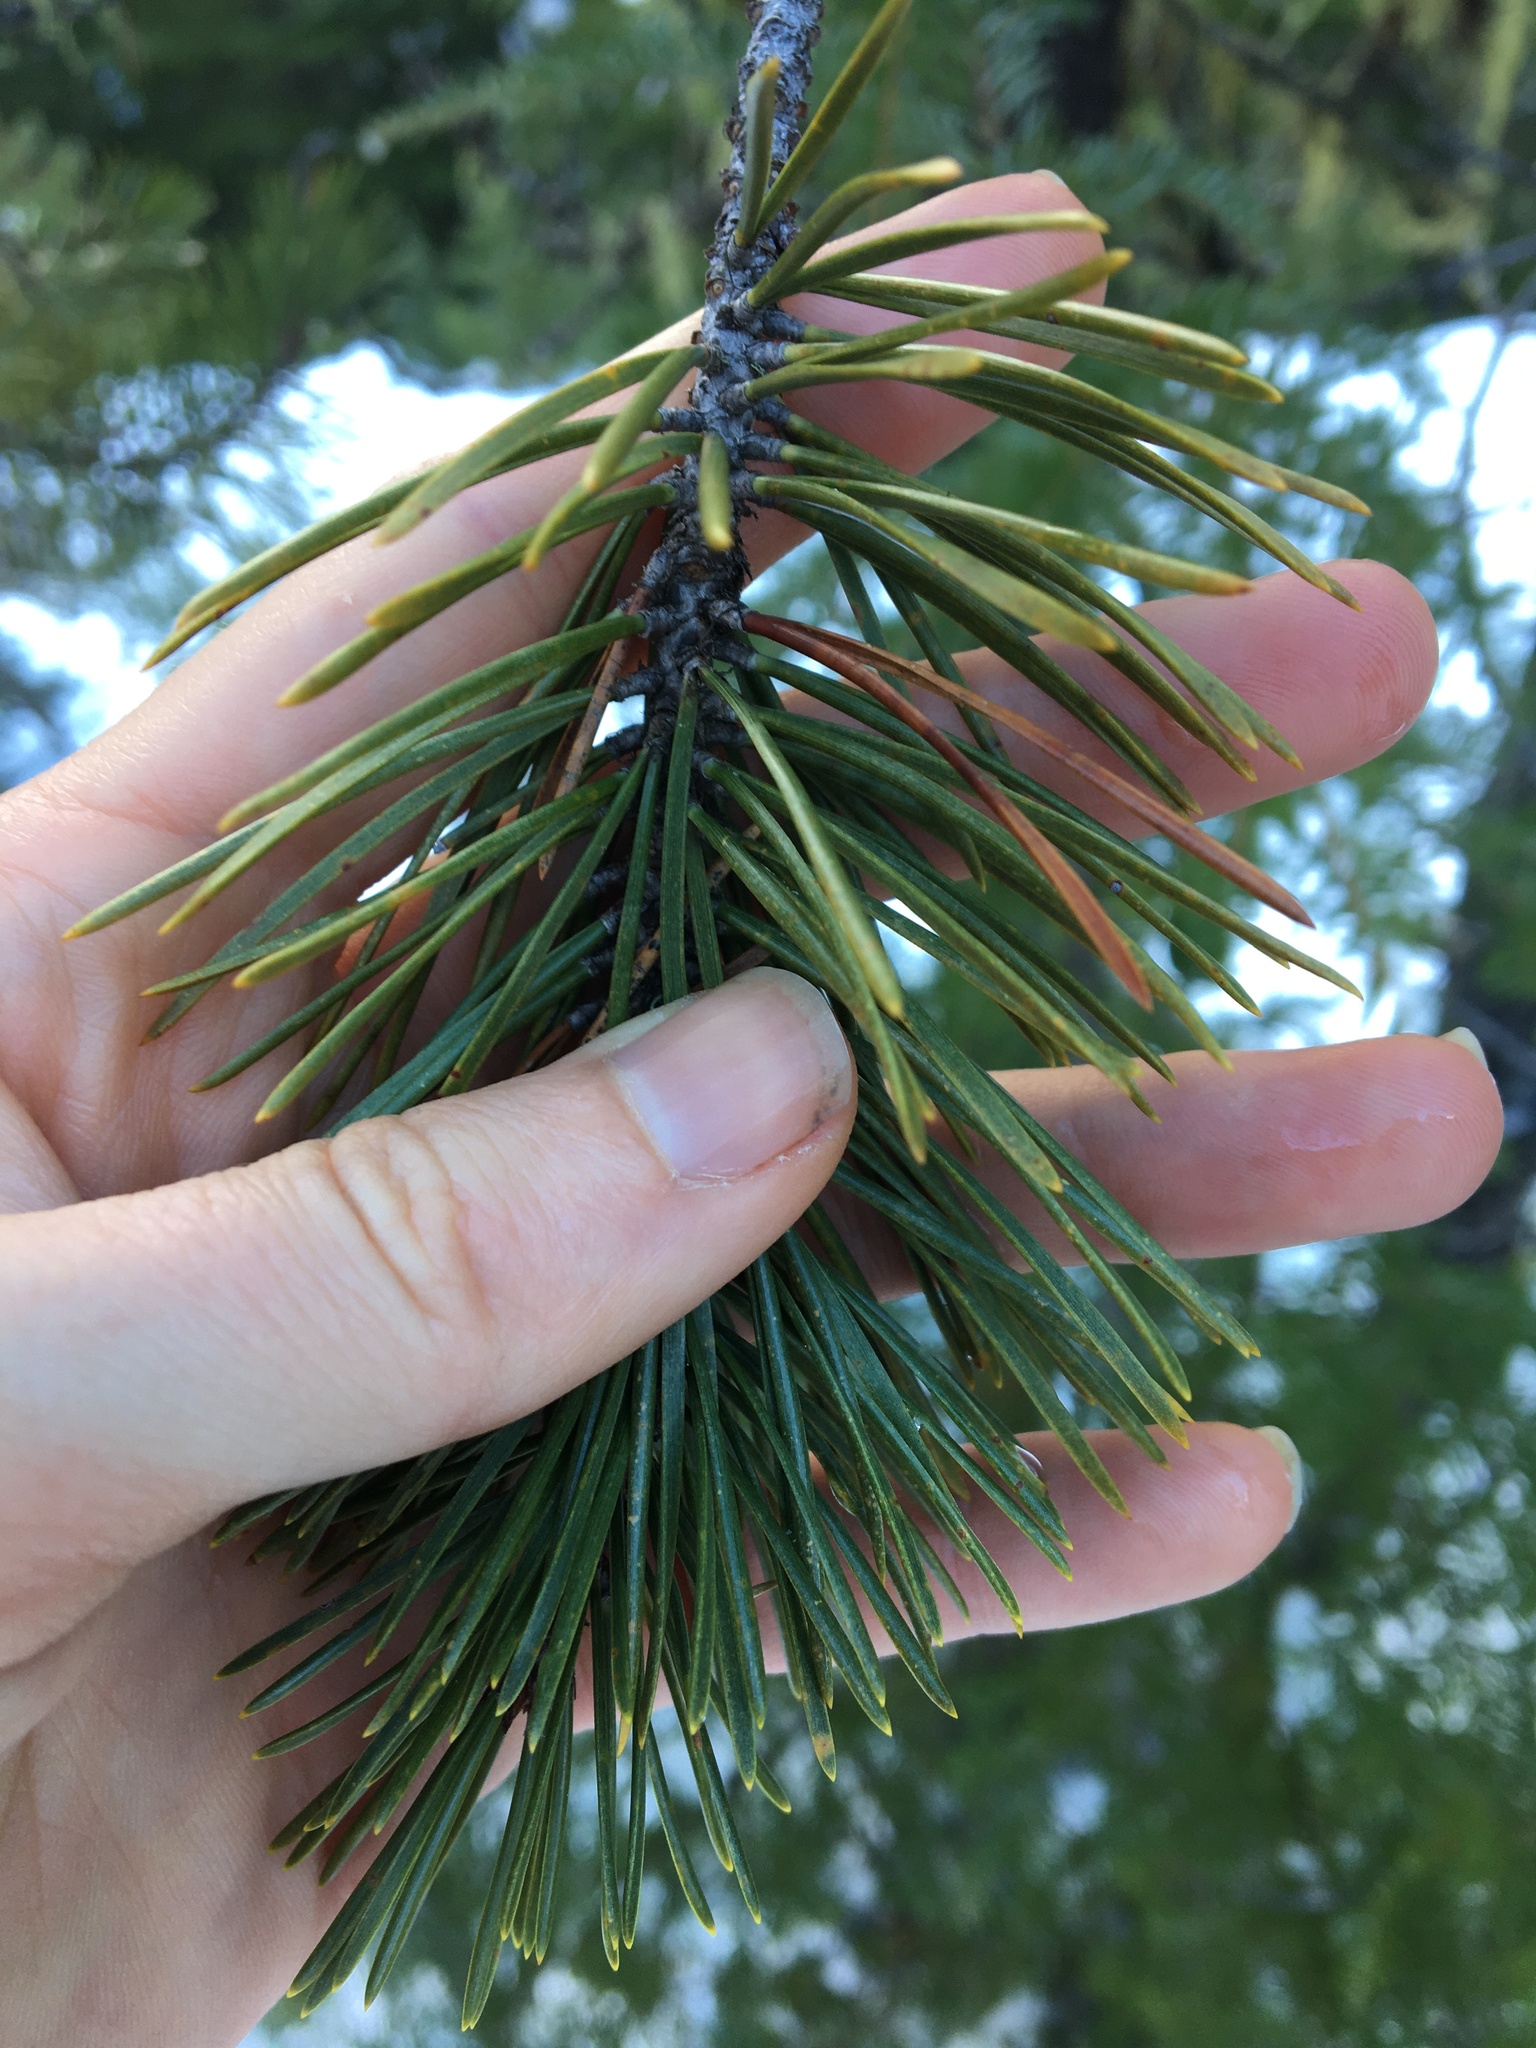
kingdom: Plantae
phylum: Tracheophyta
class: Pinopsida
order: Pinales
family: Pinaceae
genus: Pinus
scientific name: Pinus contorta
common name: Lodgepole pine
